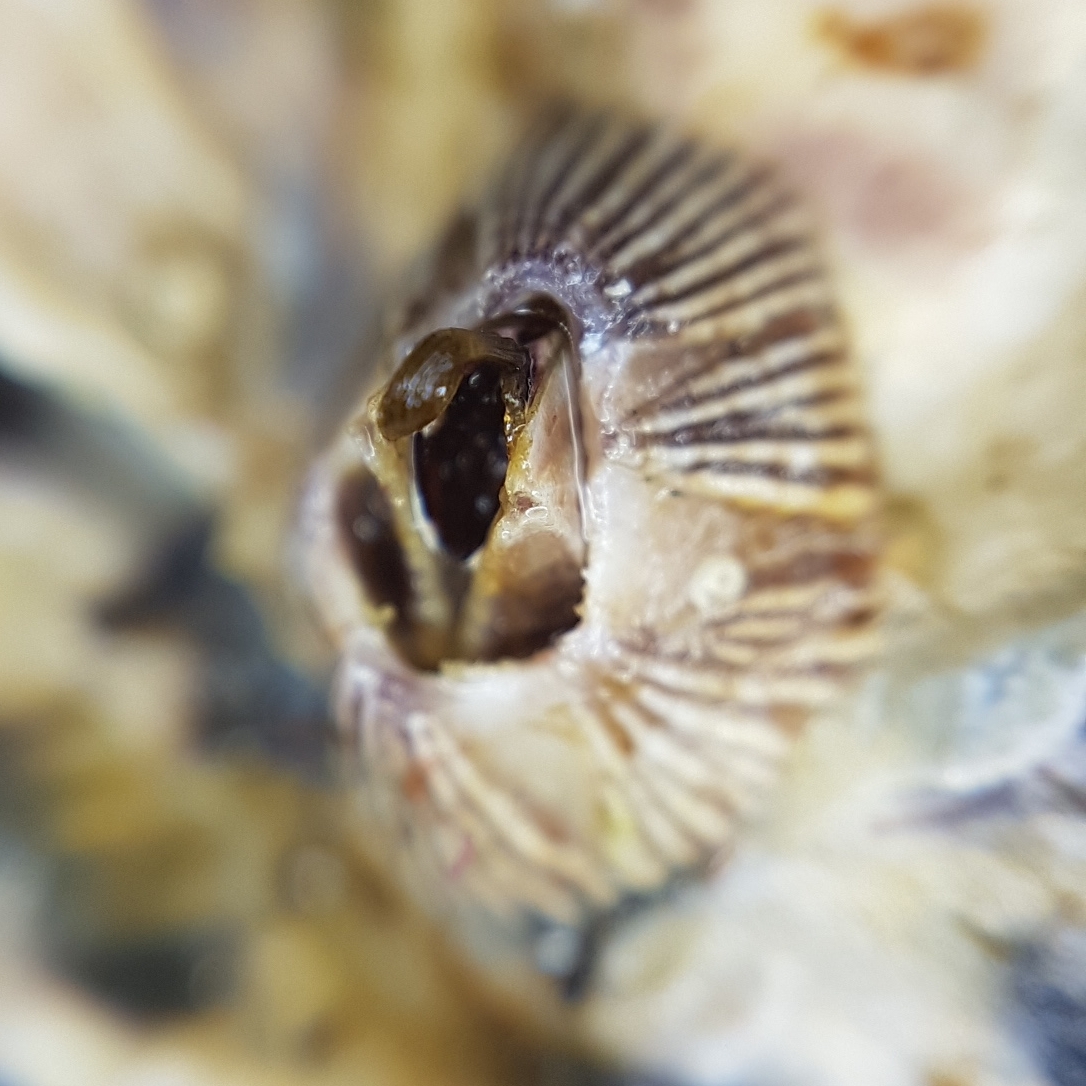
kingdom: Animalia
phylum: Arthropoda
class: Maxillopoda
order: Sessilia
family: Balanidae
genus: Balanus
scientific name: Balanus trigonus
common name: Triangle barnacle
